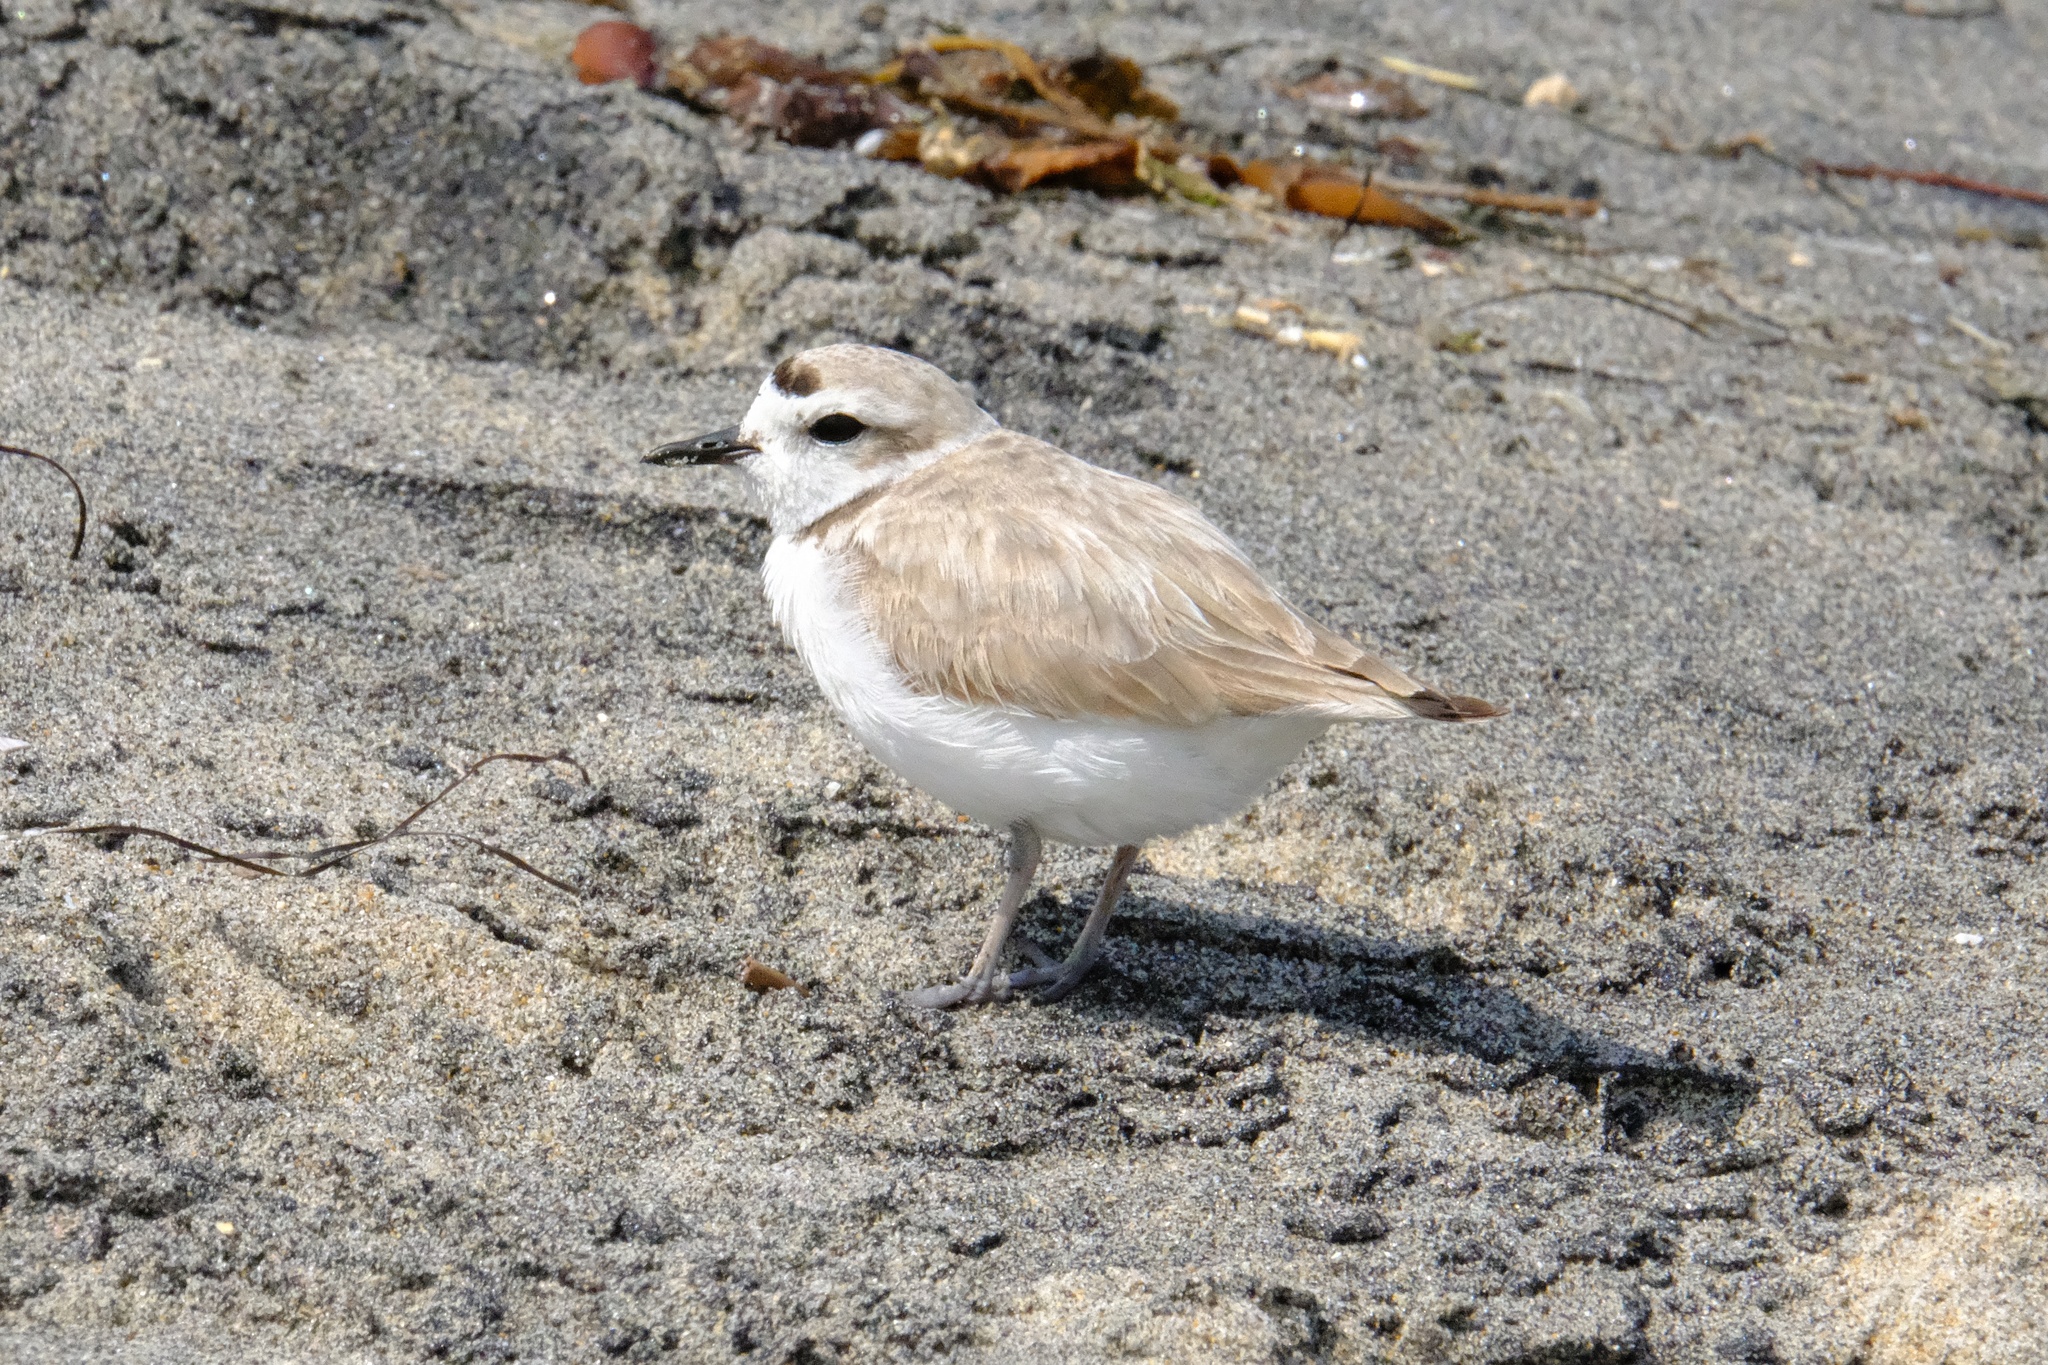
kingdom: Animalia
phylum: Chordata
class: Aves
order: Charadriiformes
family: Charadriidae
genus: Anarhynchus
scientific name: Anarhynchus
